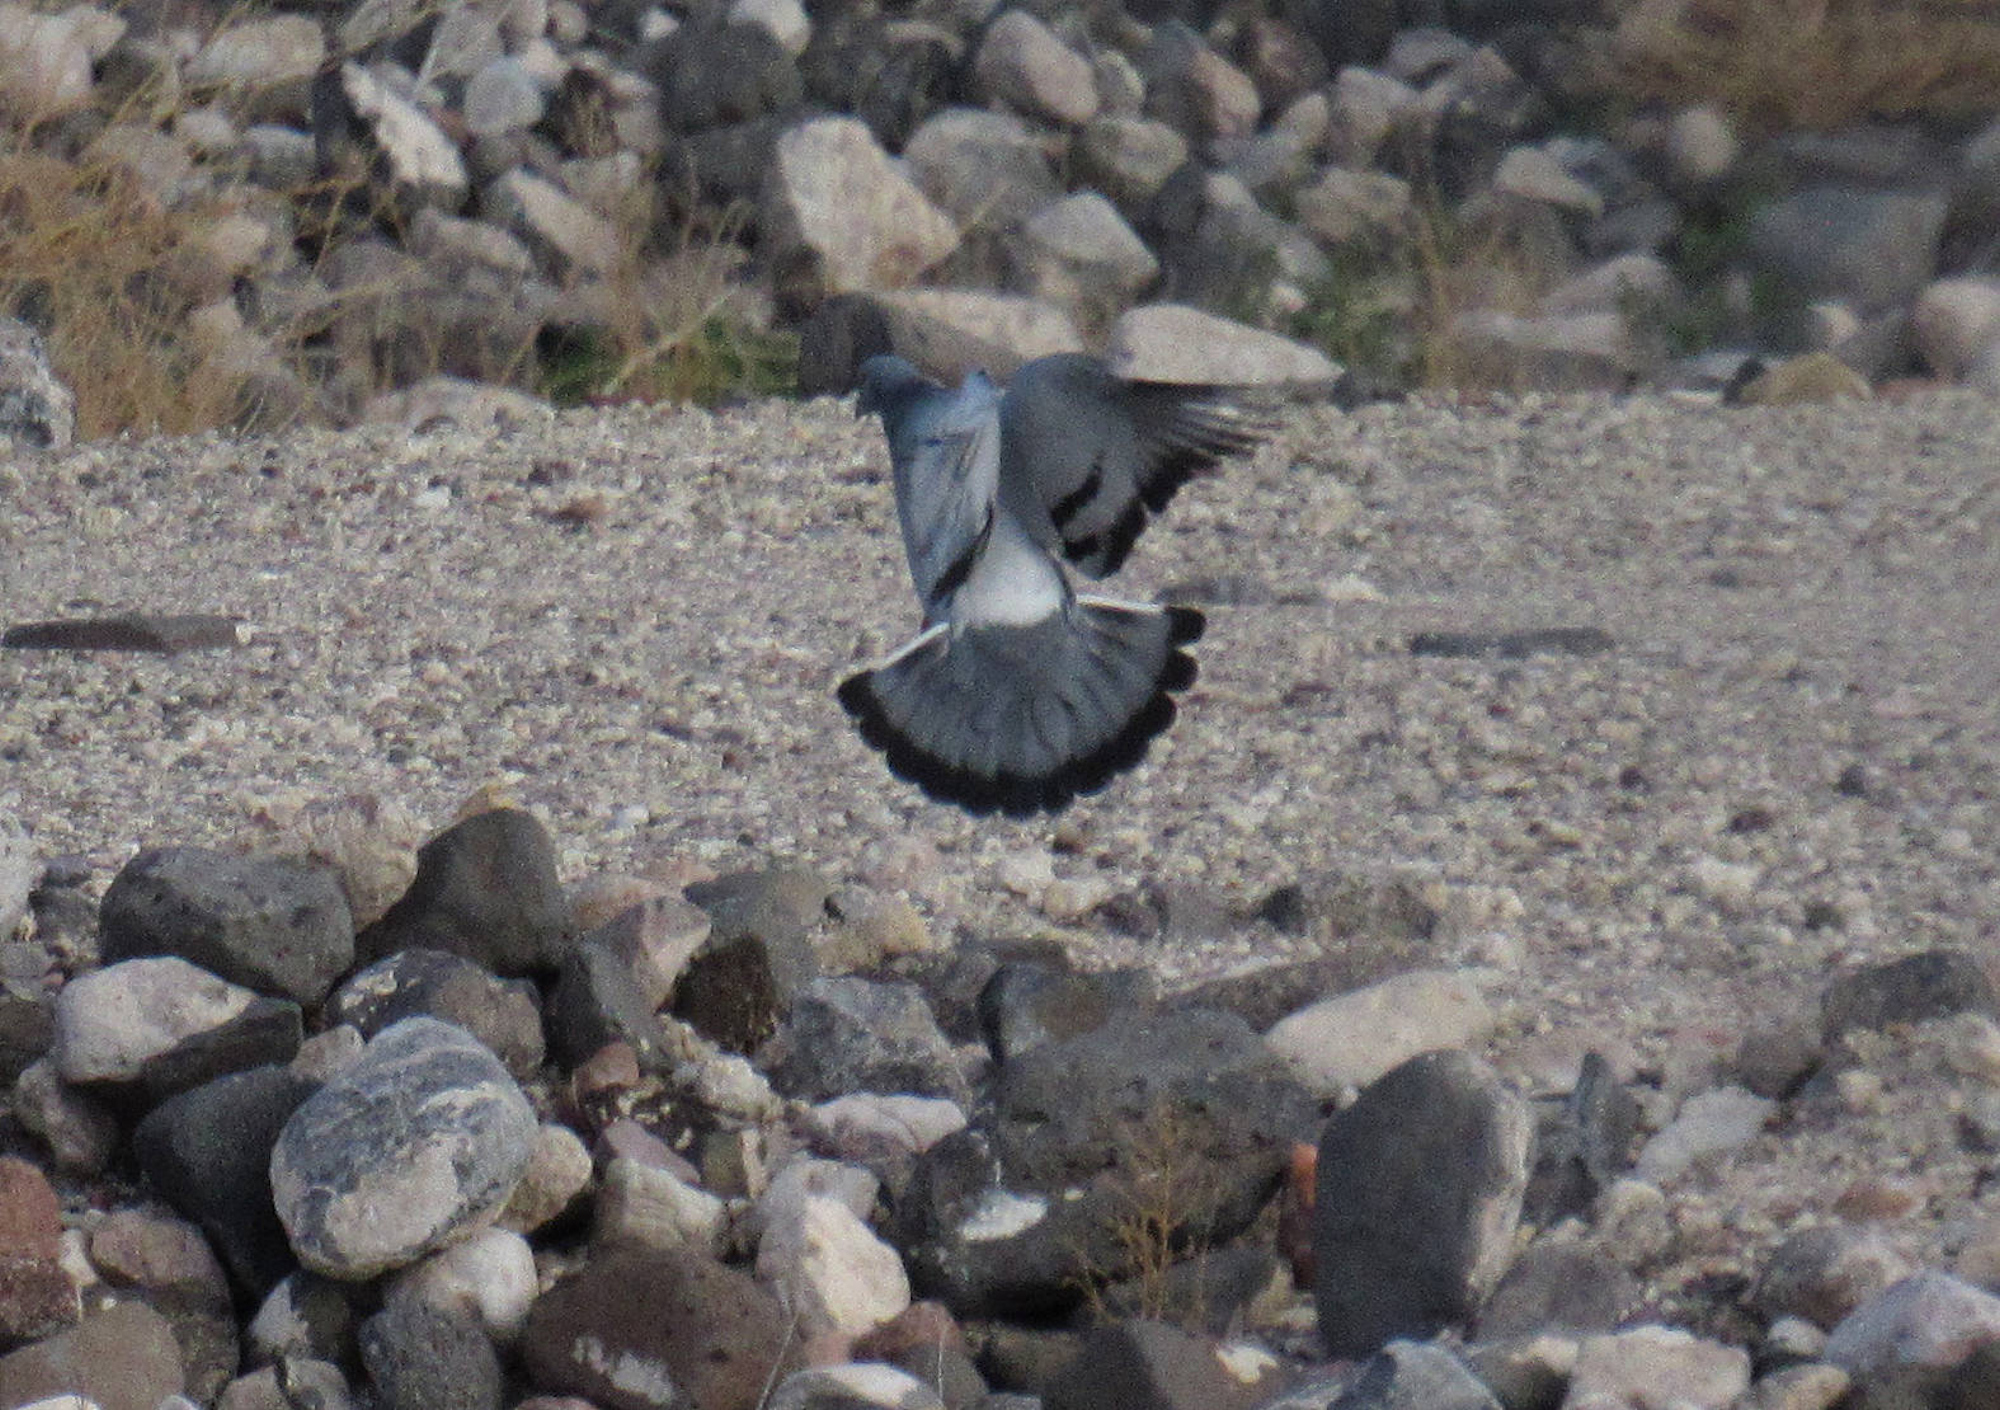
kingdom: Animalia
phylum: Chordata
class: Aves
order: Columbiformes
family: Columbidae
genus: Columba
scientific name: Columba livia
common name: Rock pigeon
